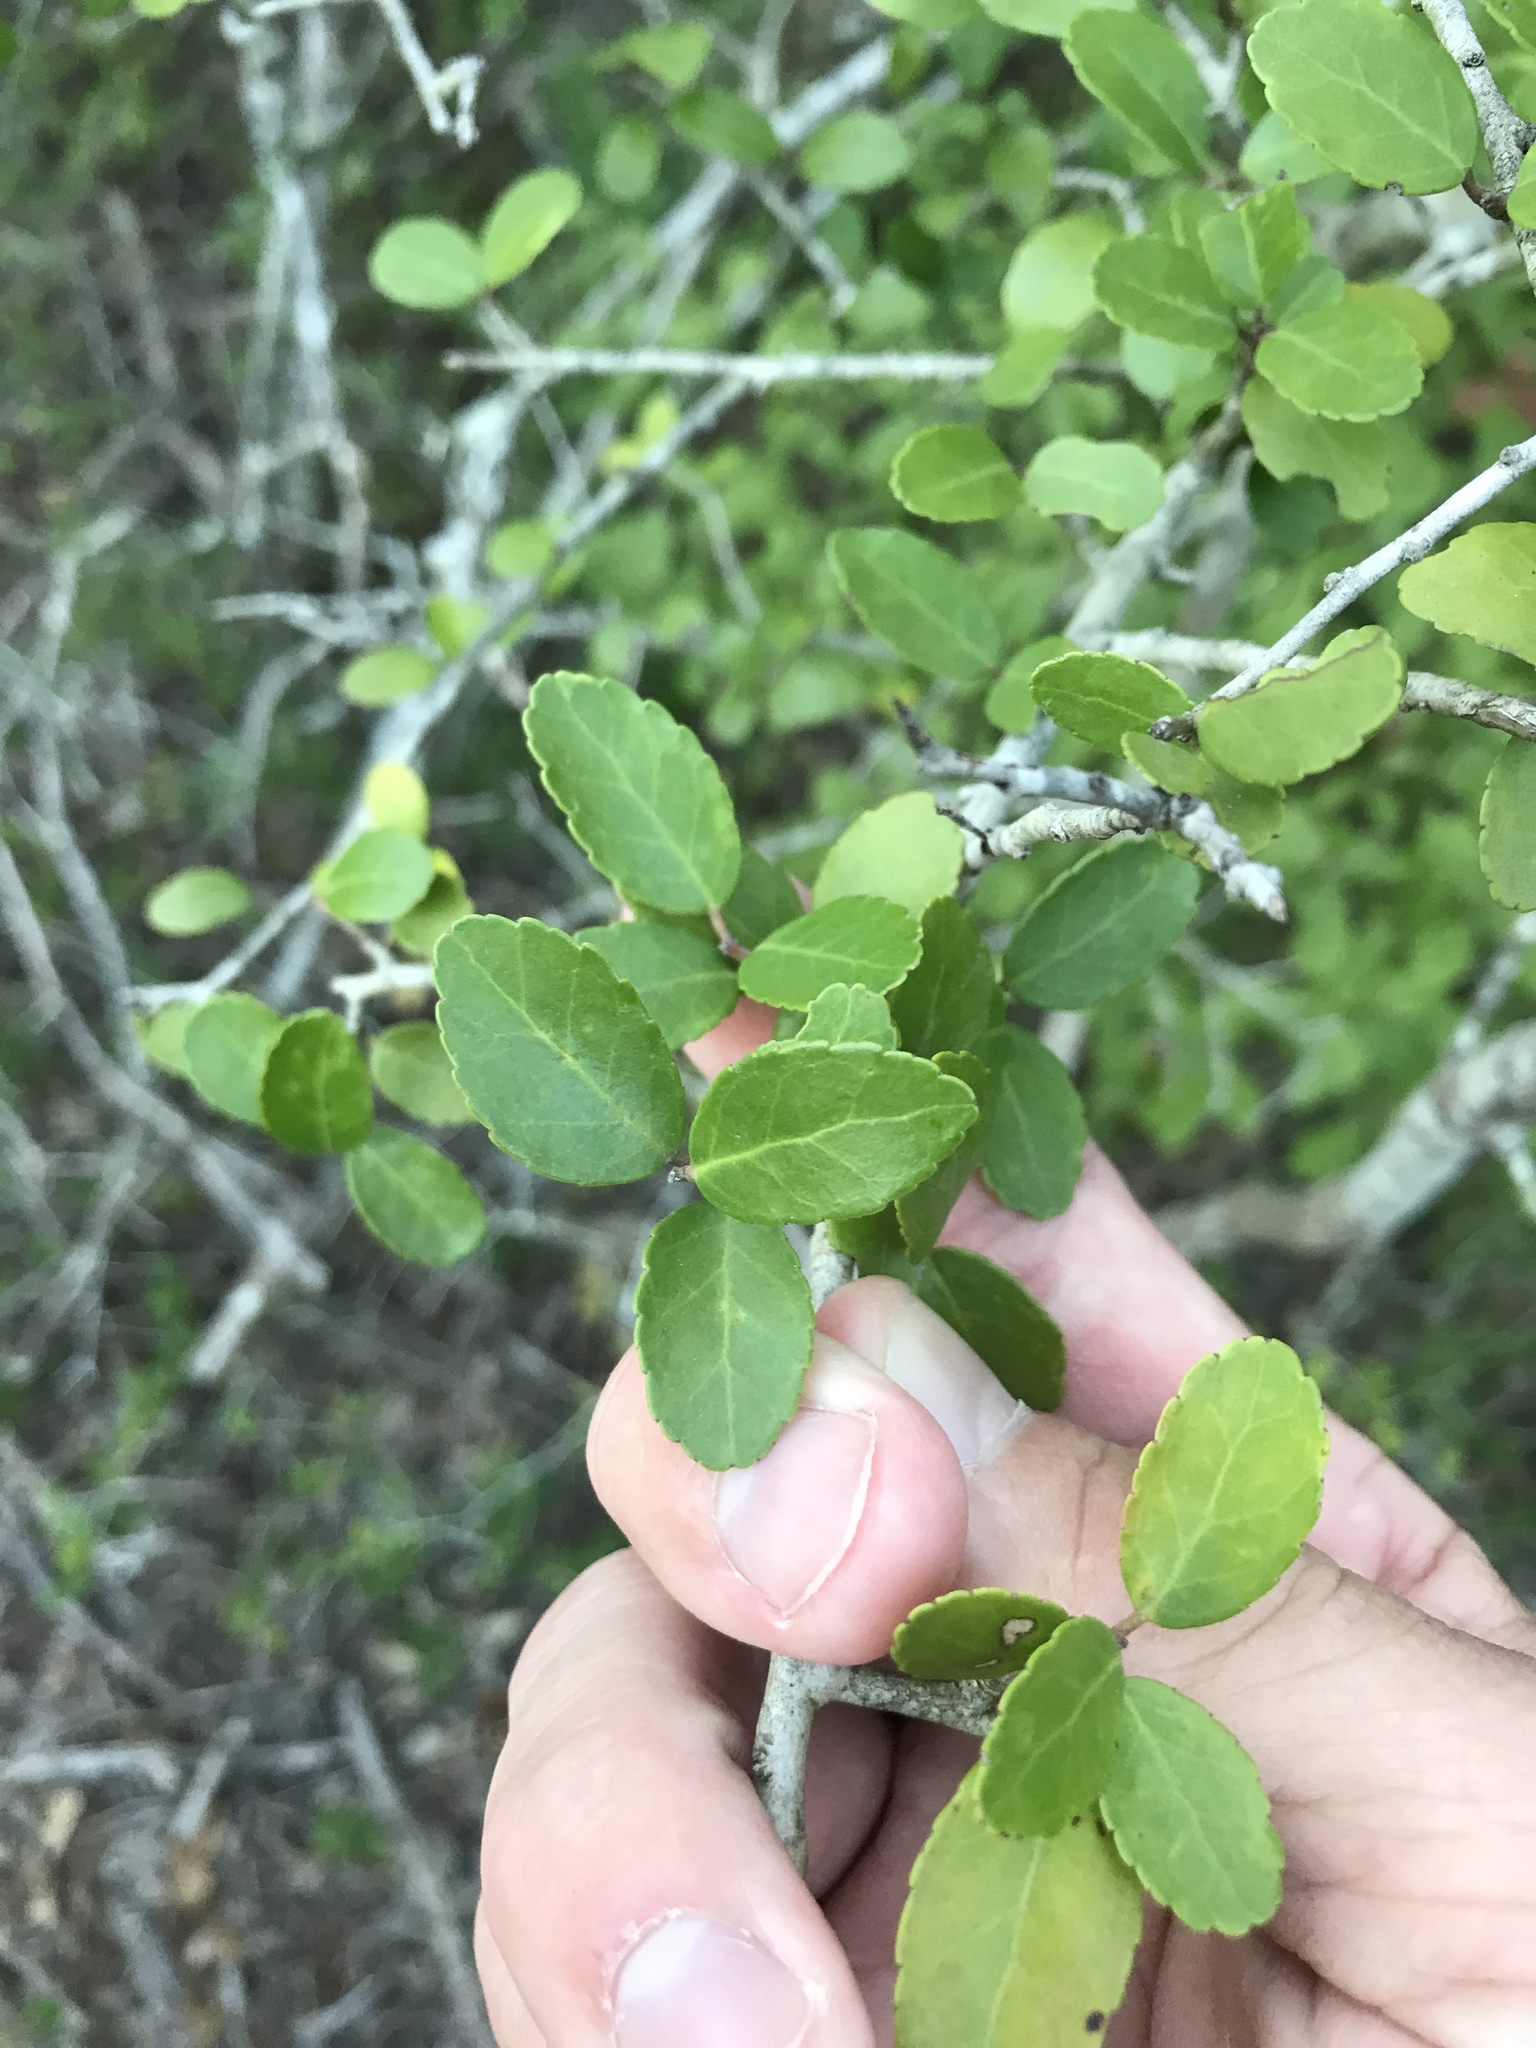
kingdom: Plantae
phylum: Tracheophyta
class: Magnoliopsida
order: Aquifoliales
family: Aquifoliaceae
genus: Ilex
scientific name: Ilex vomitoria
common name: Yaupon holly
